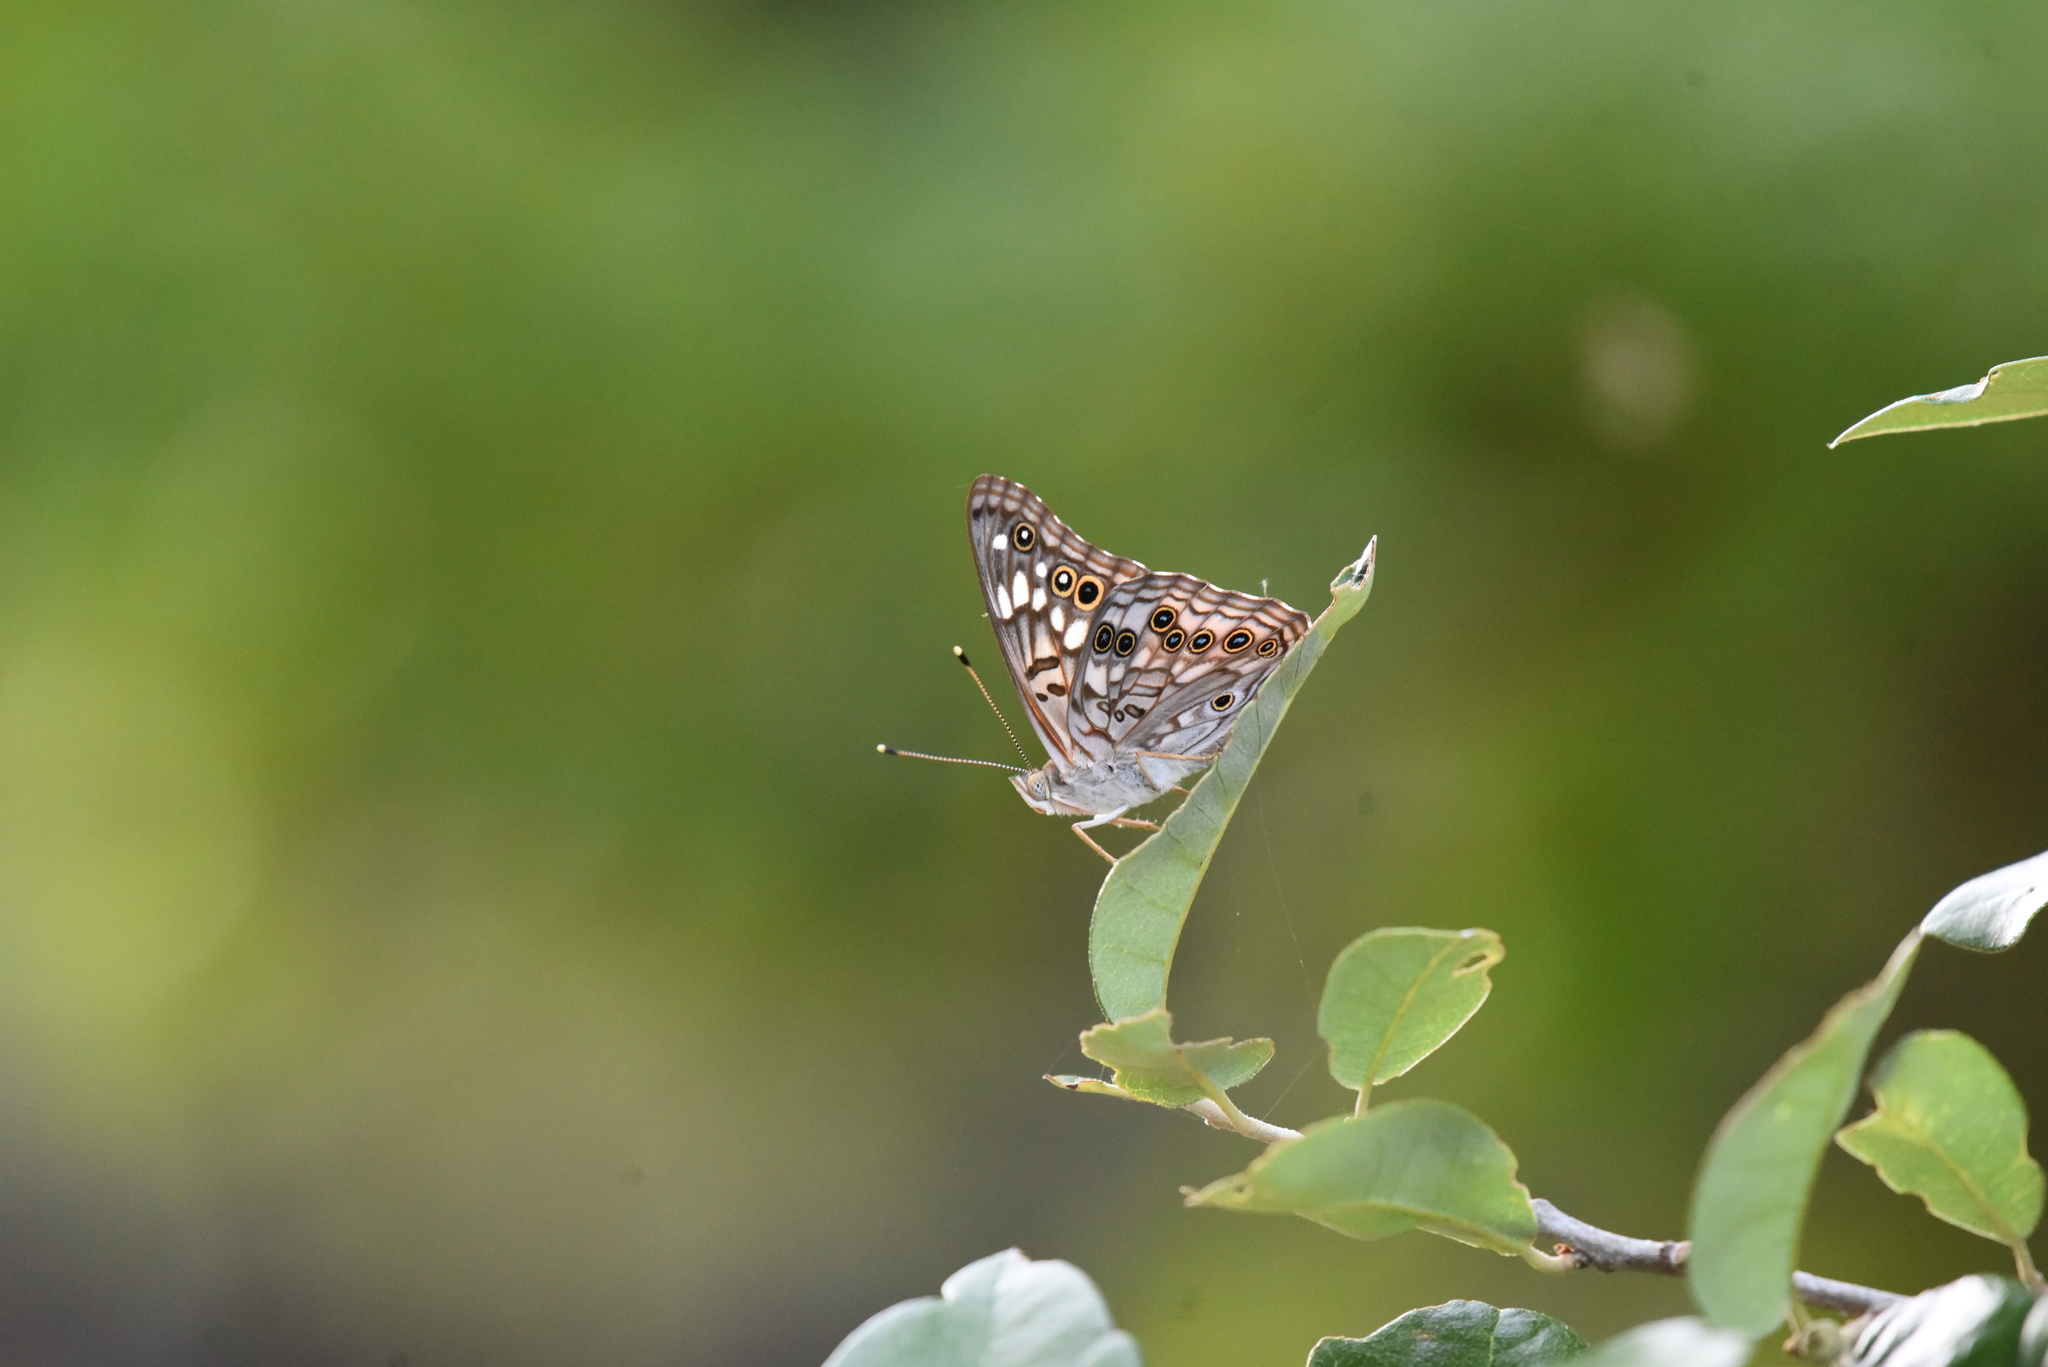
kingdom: Animalia
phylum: Arthropoda
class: Insecta
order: Lepidoptera
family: Nymphalidae
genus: Asterocampa
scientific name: Asterocampa celtis
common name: Hackberry emperor
